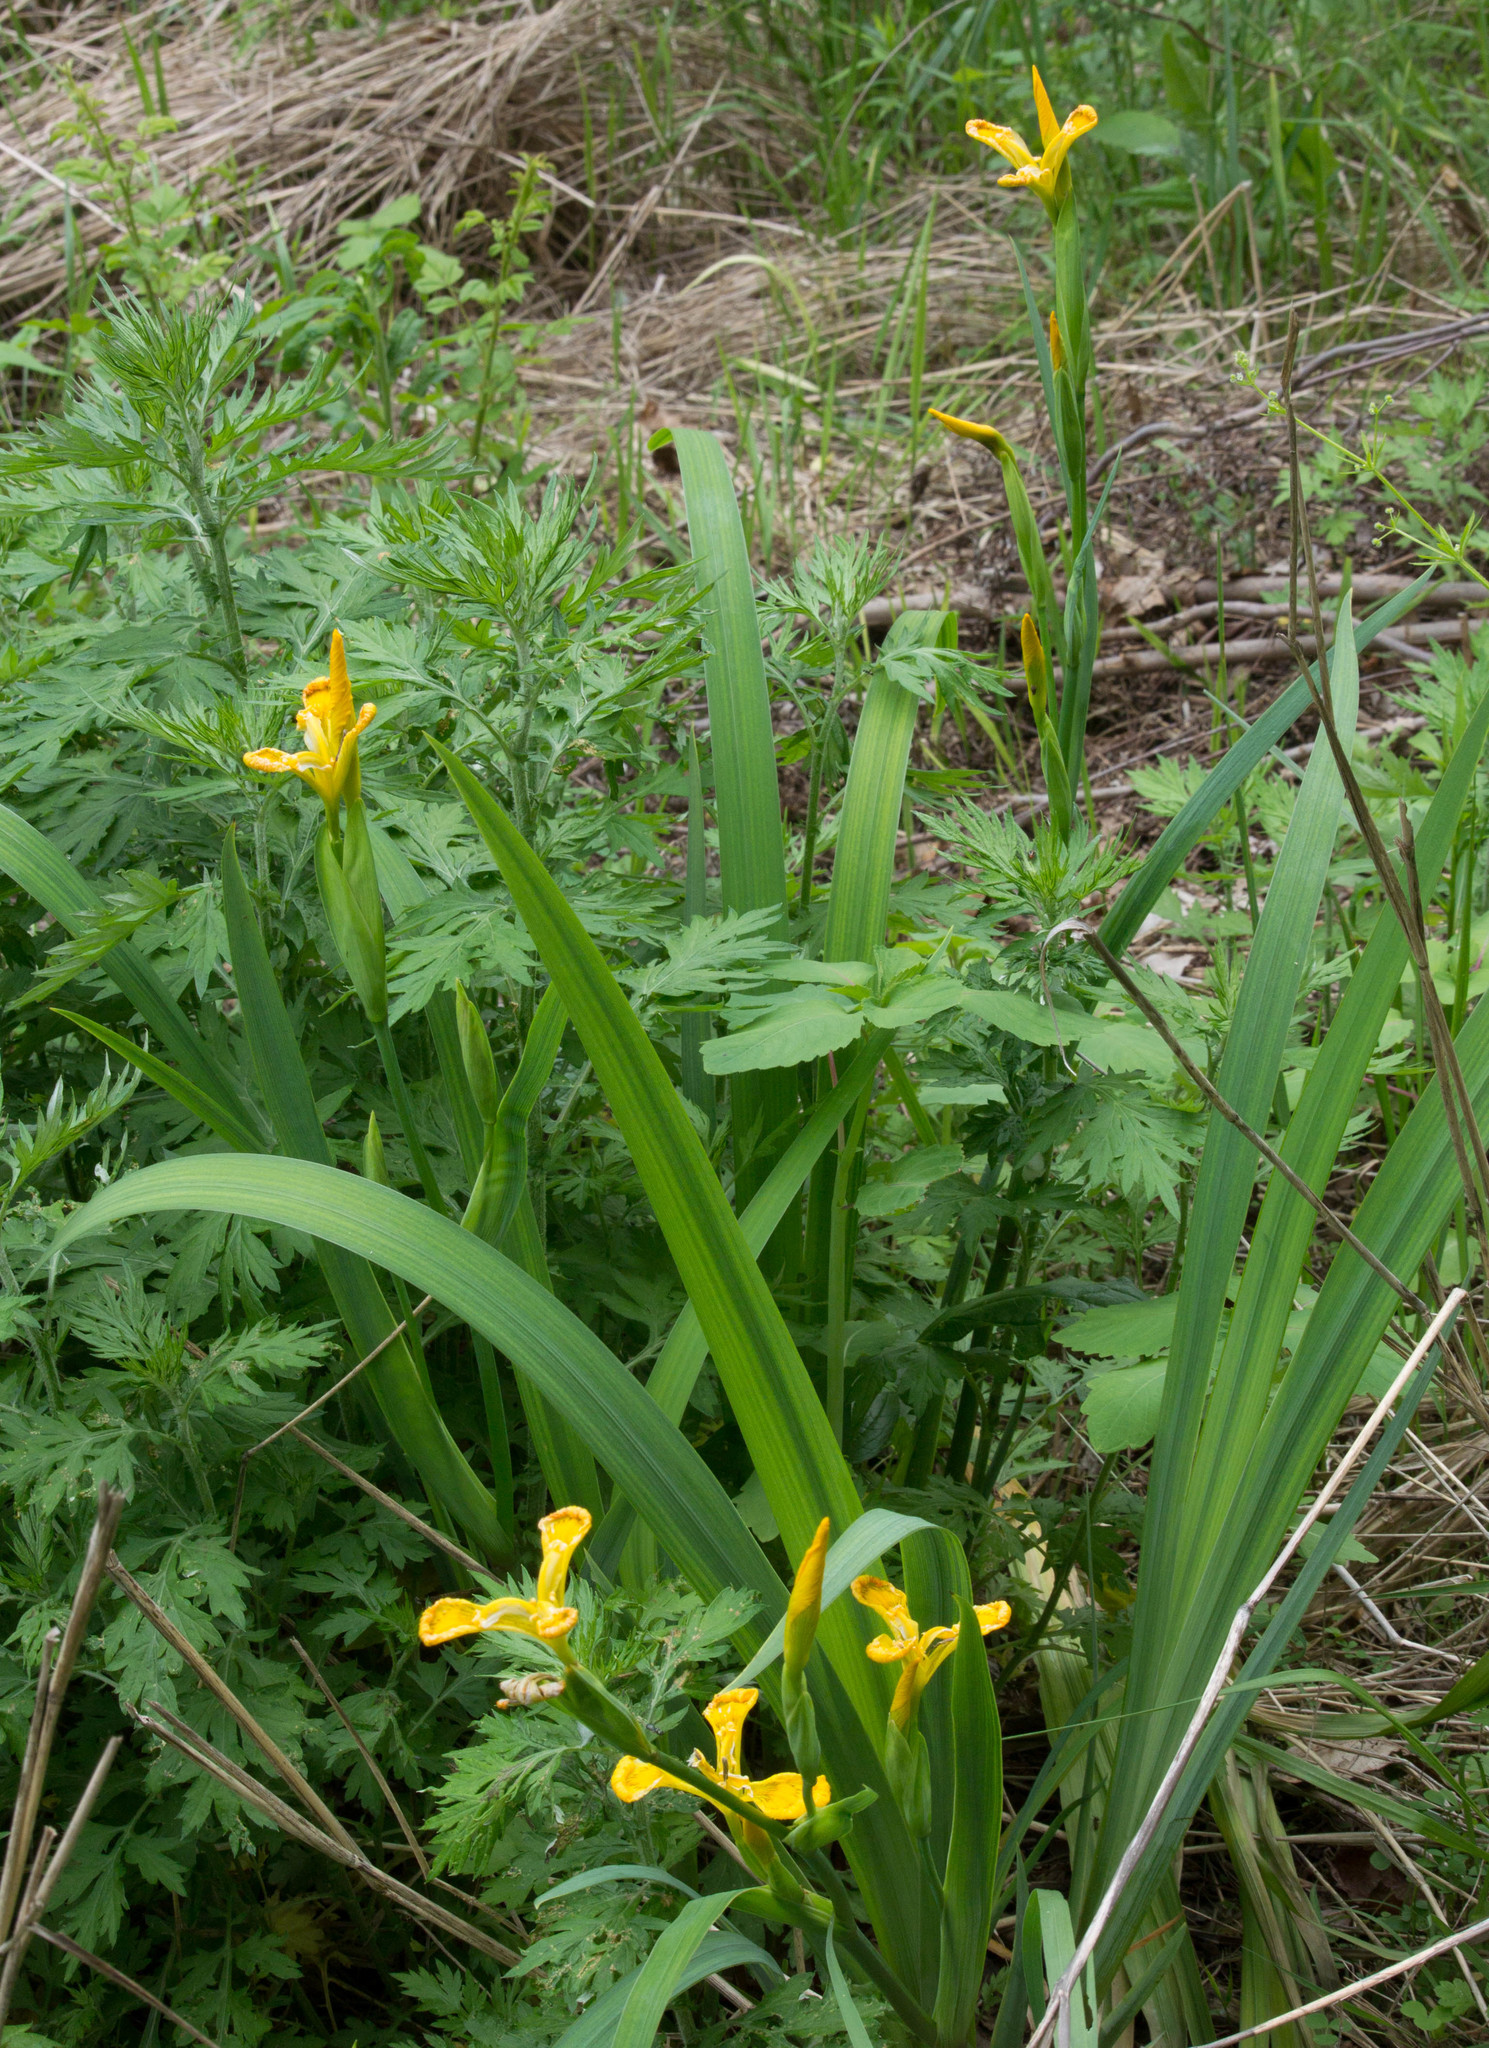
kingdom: Plantae
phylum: Tracheophyta
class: Liliopsida
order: Asparagales
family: Iridaceae
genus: Iris
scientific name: Iris pseudacorus
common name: Yellow flag
